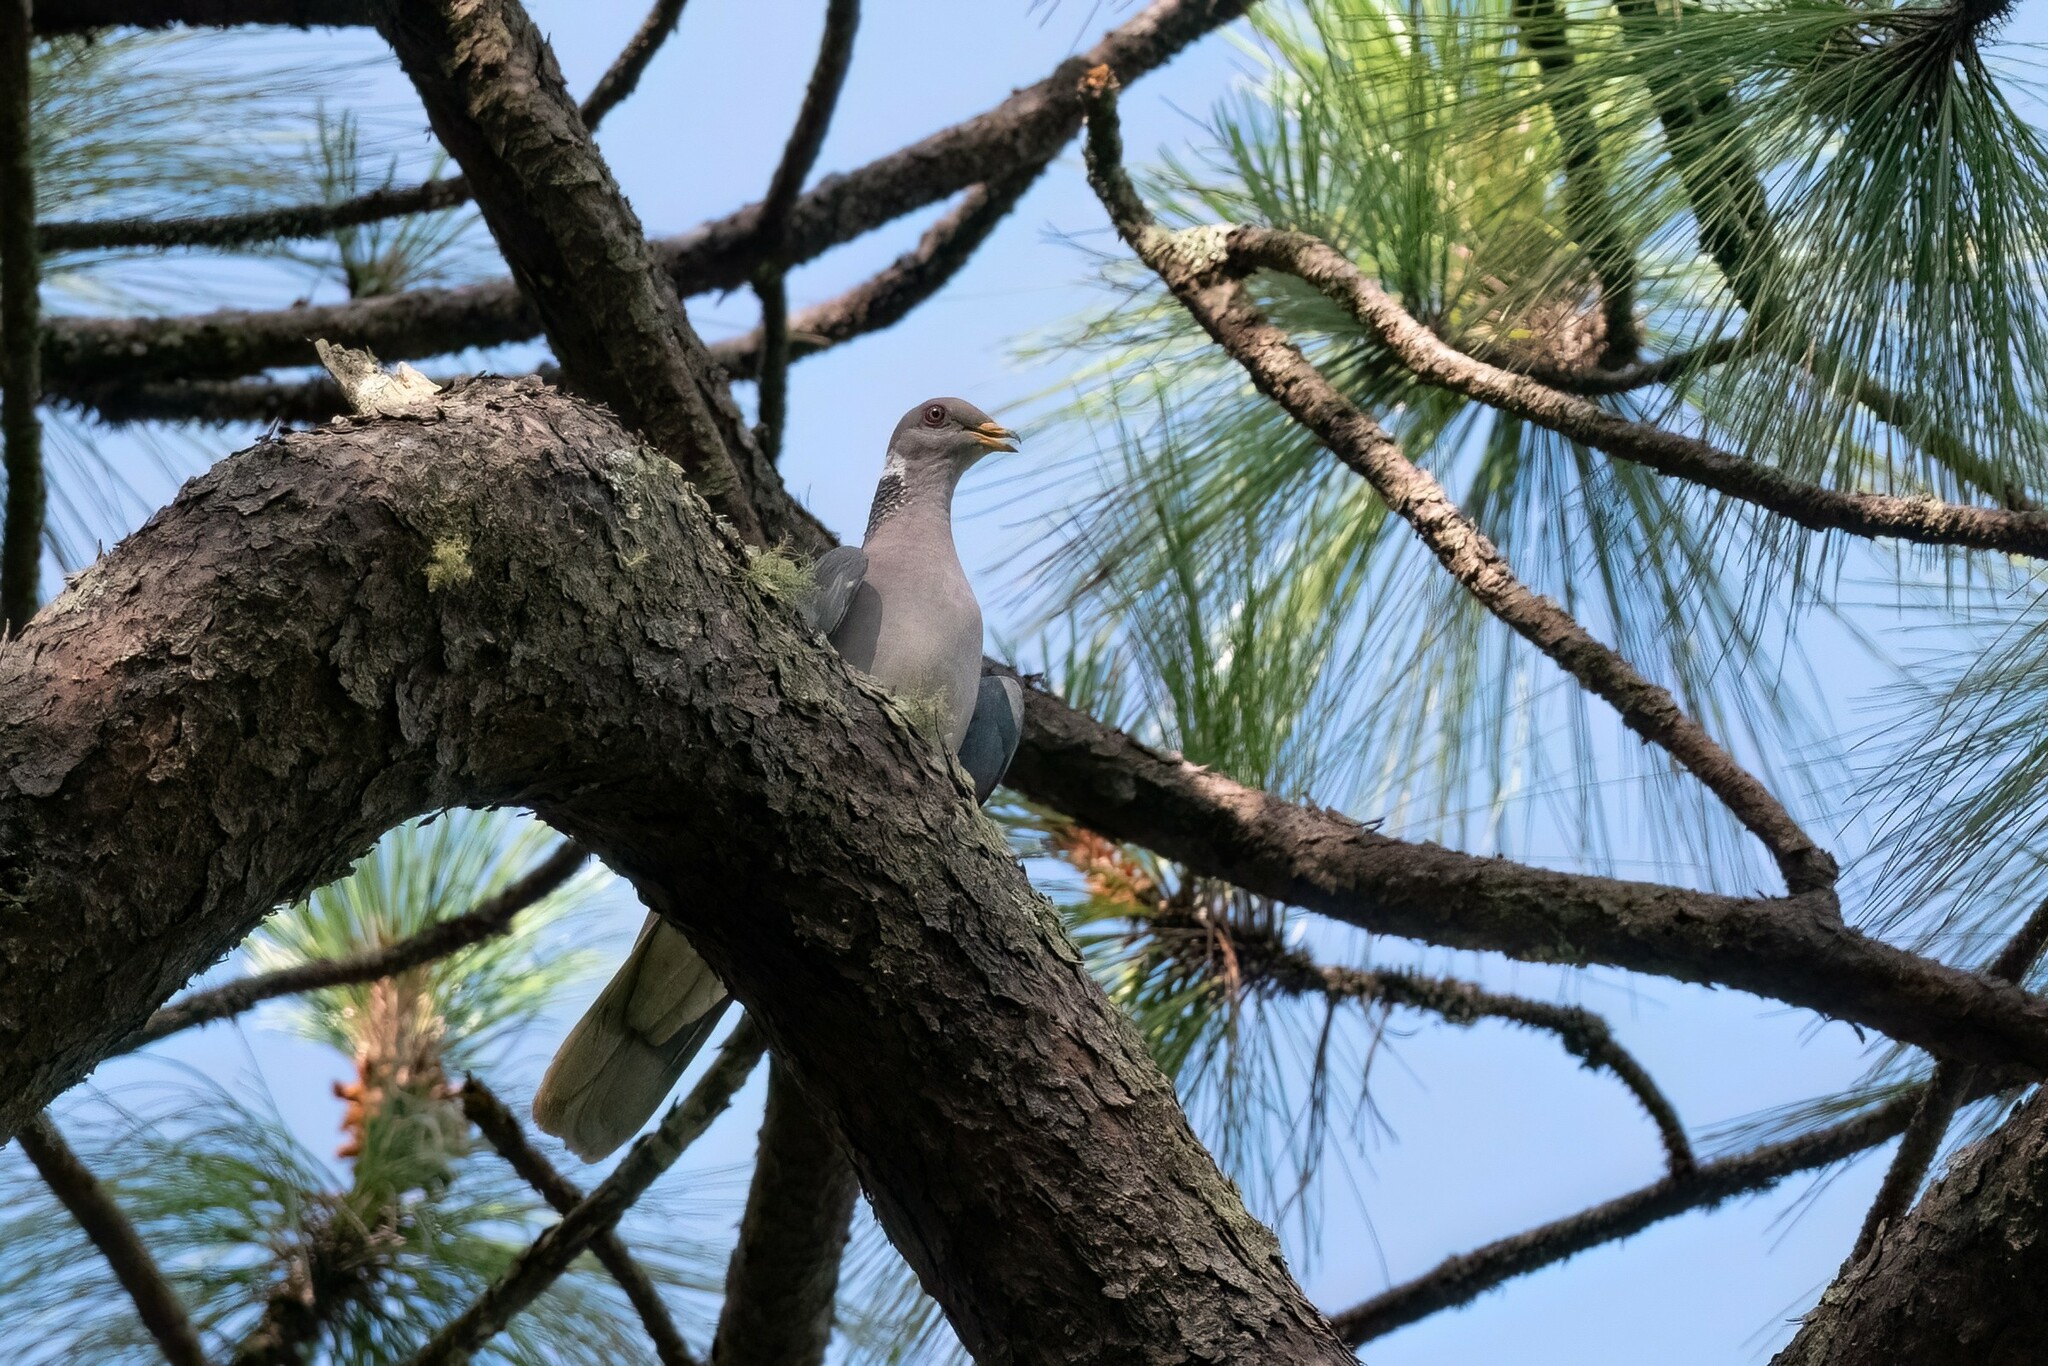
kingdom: Animalia
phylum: Chordata
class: Aves
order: Columbiformes
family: Columbidae
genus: Patagioenas
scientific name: Patagioenas fasciata
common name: Band-tailed pigeon
